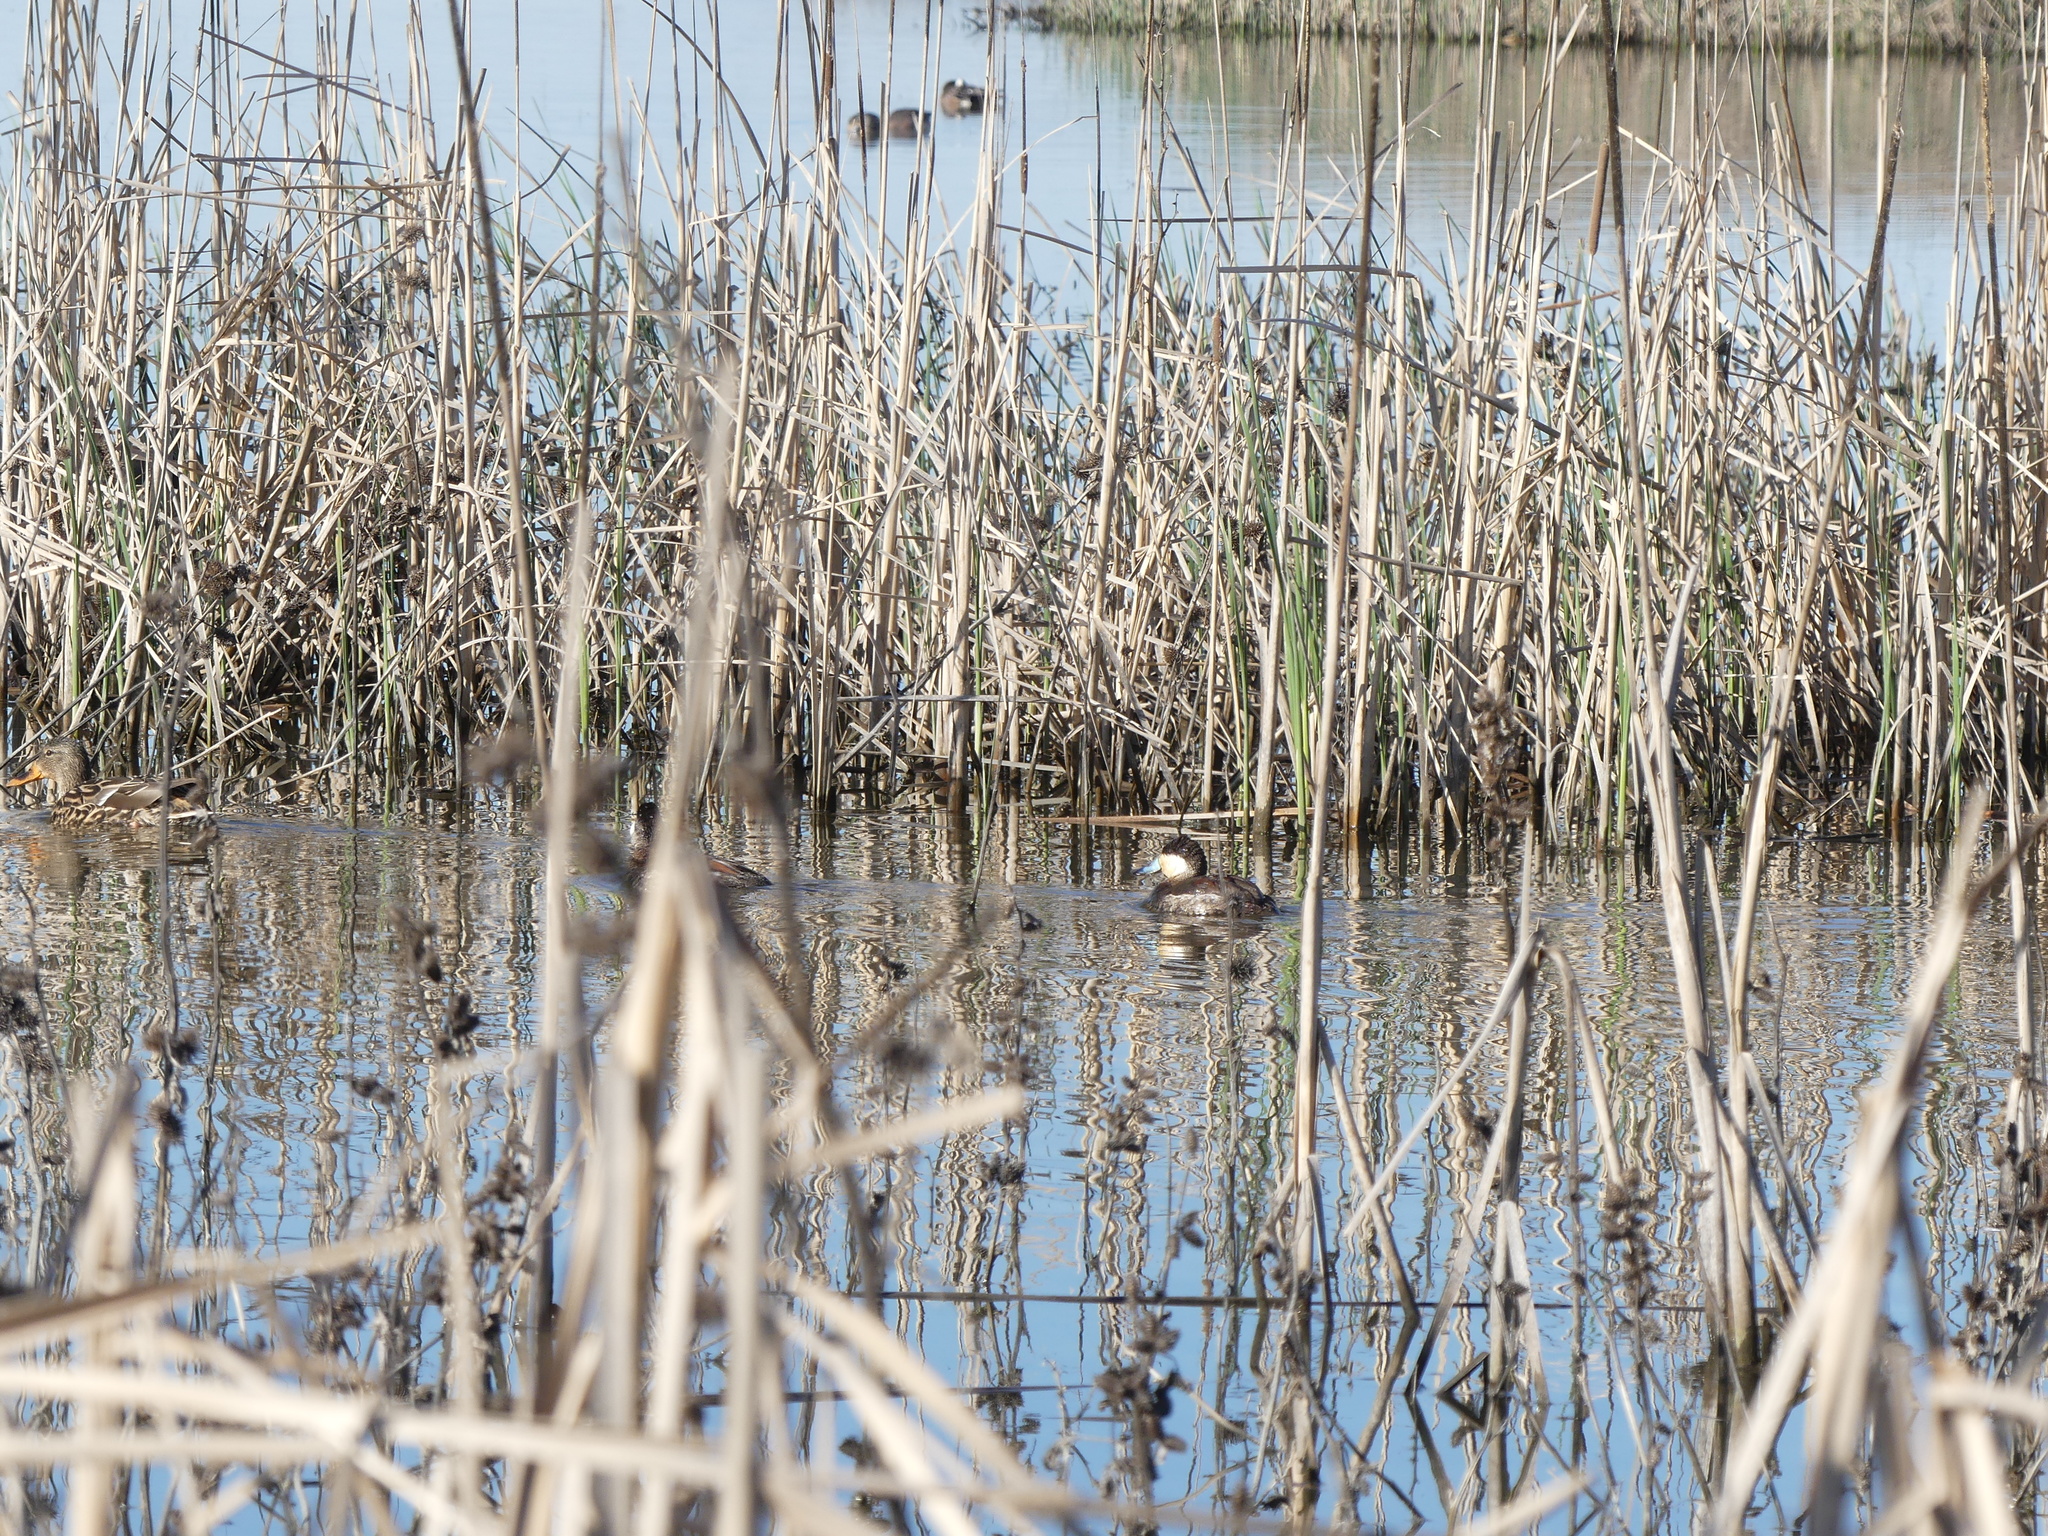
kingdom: Animalia
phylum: Chordata
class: Aves
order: Anseriformes
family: Anatidae
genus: Oxyura
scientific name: Oxyura jamaicensis
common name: Ruddy duck
